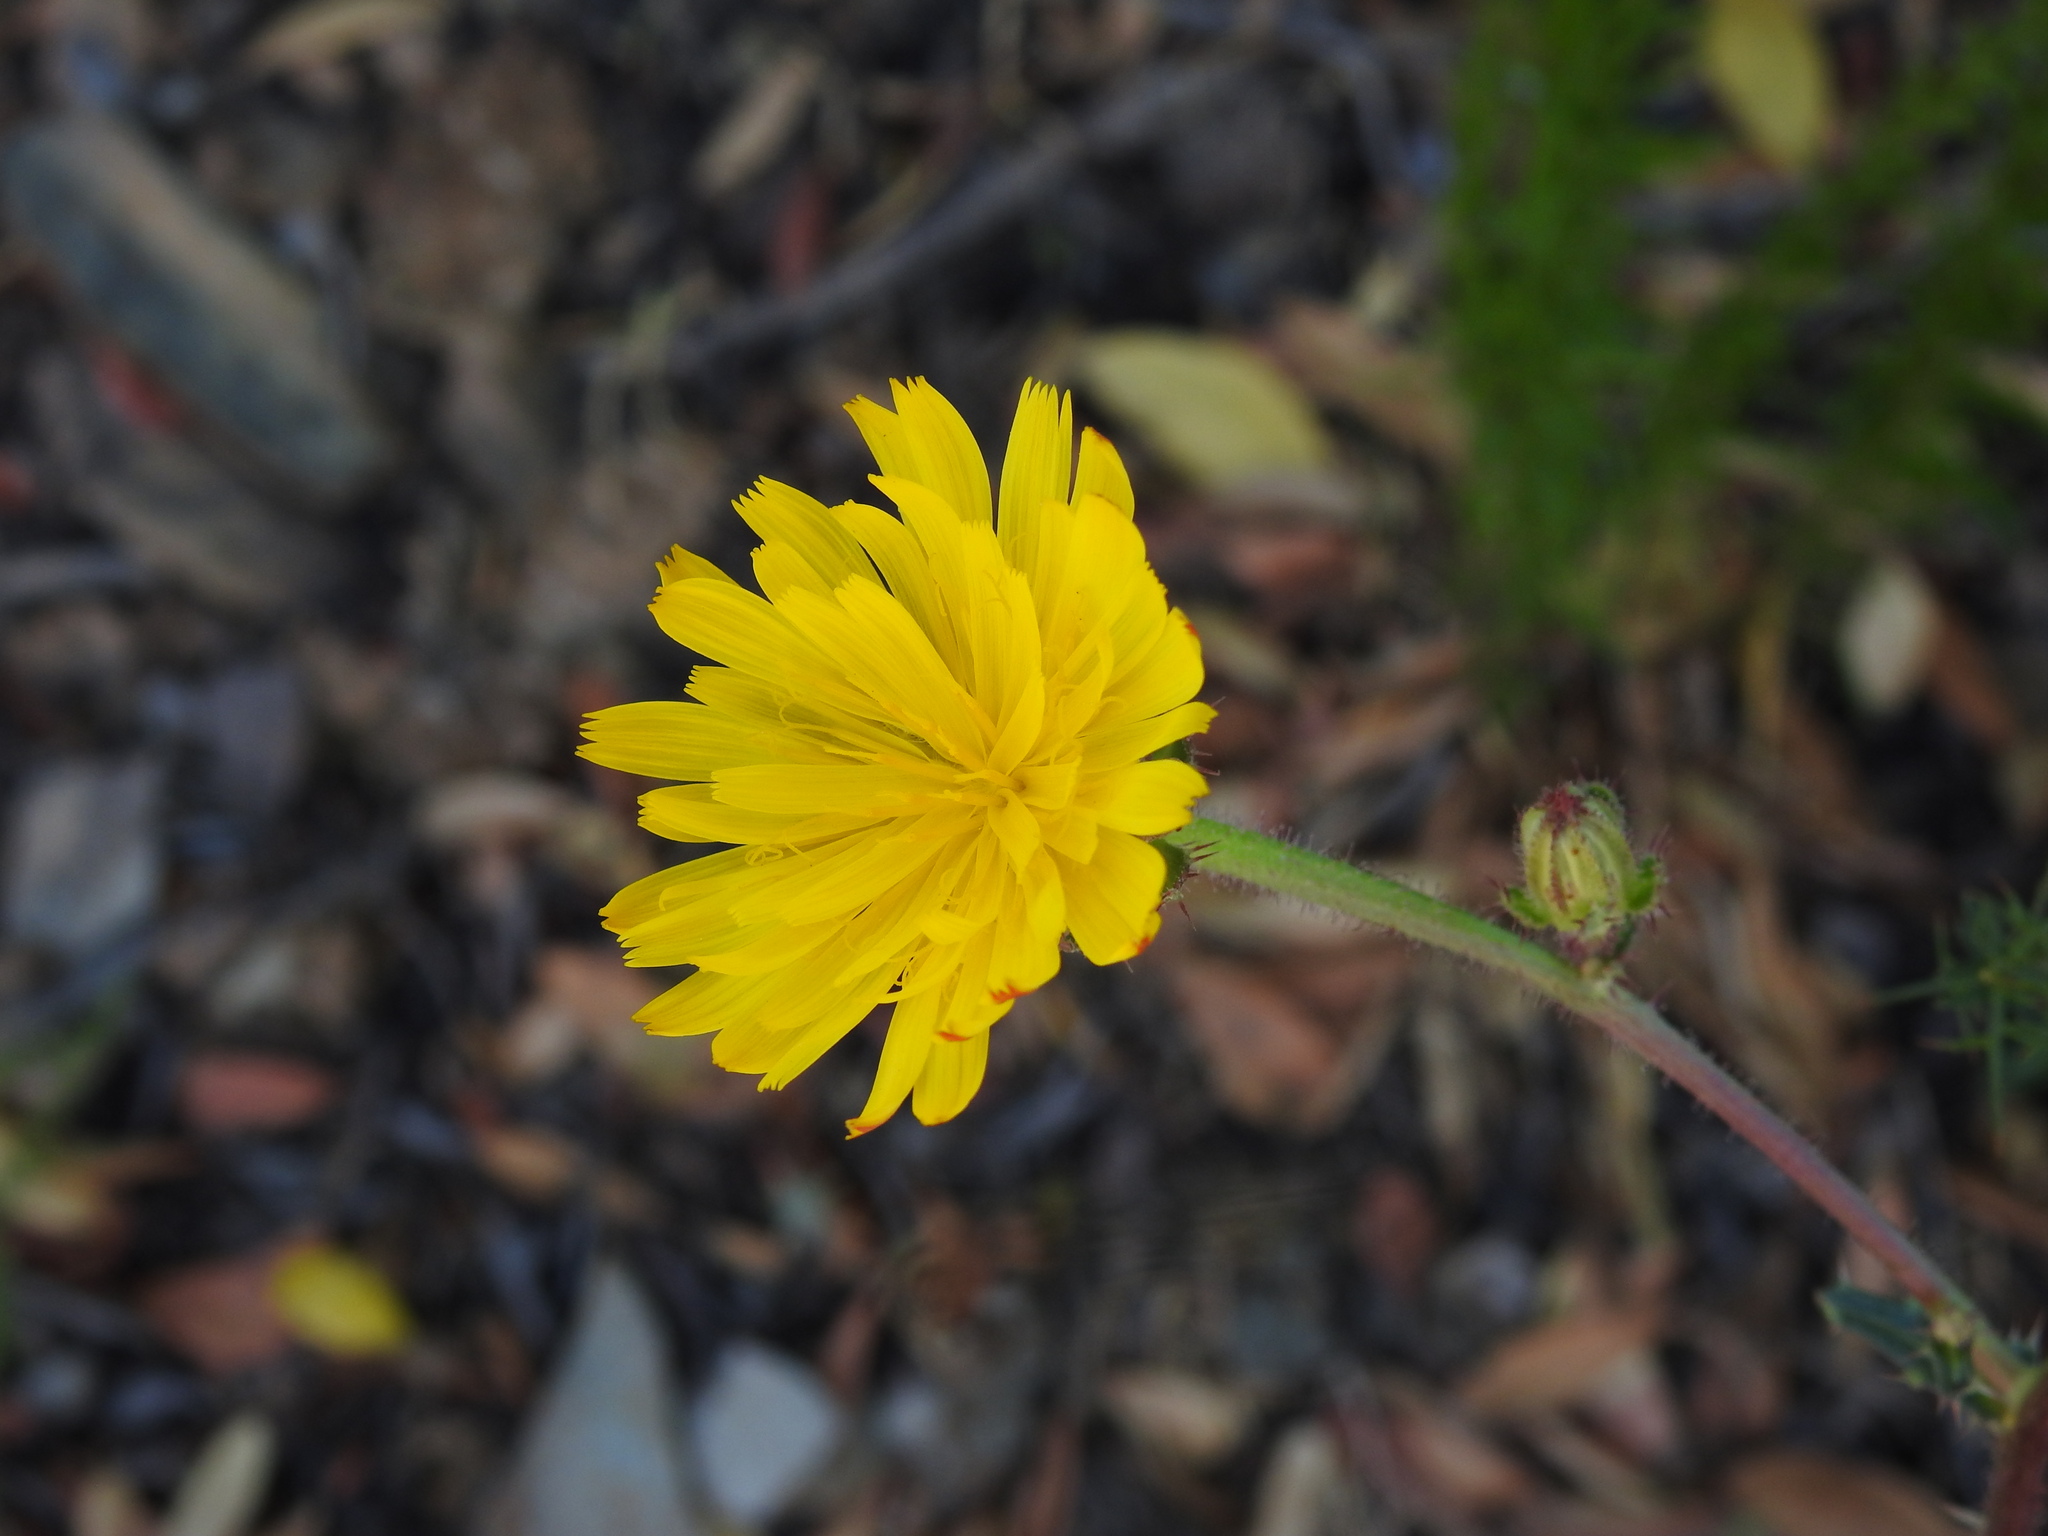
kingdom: Plantae
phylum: Tracheophyta
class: Magnoliopsida
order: Asterales
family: Asteraceae
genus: Helminthotheca
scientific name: Helminthotheca spinosa
